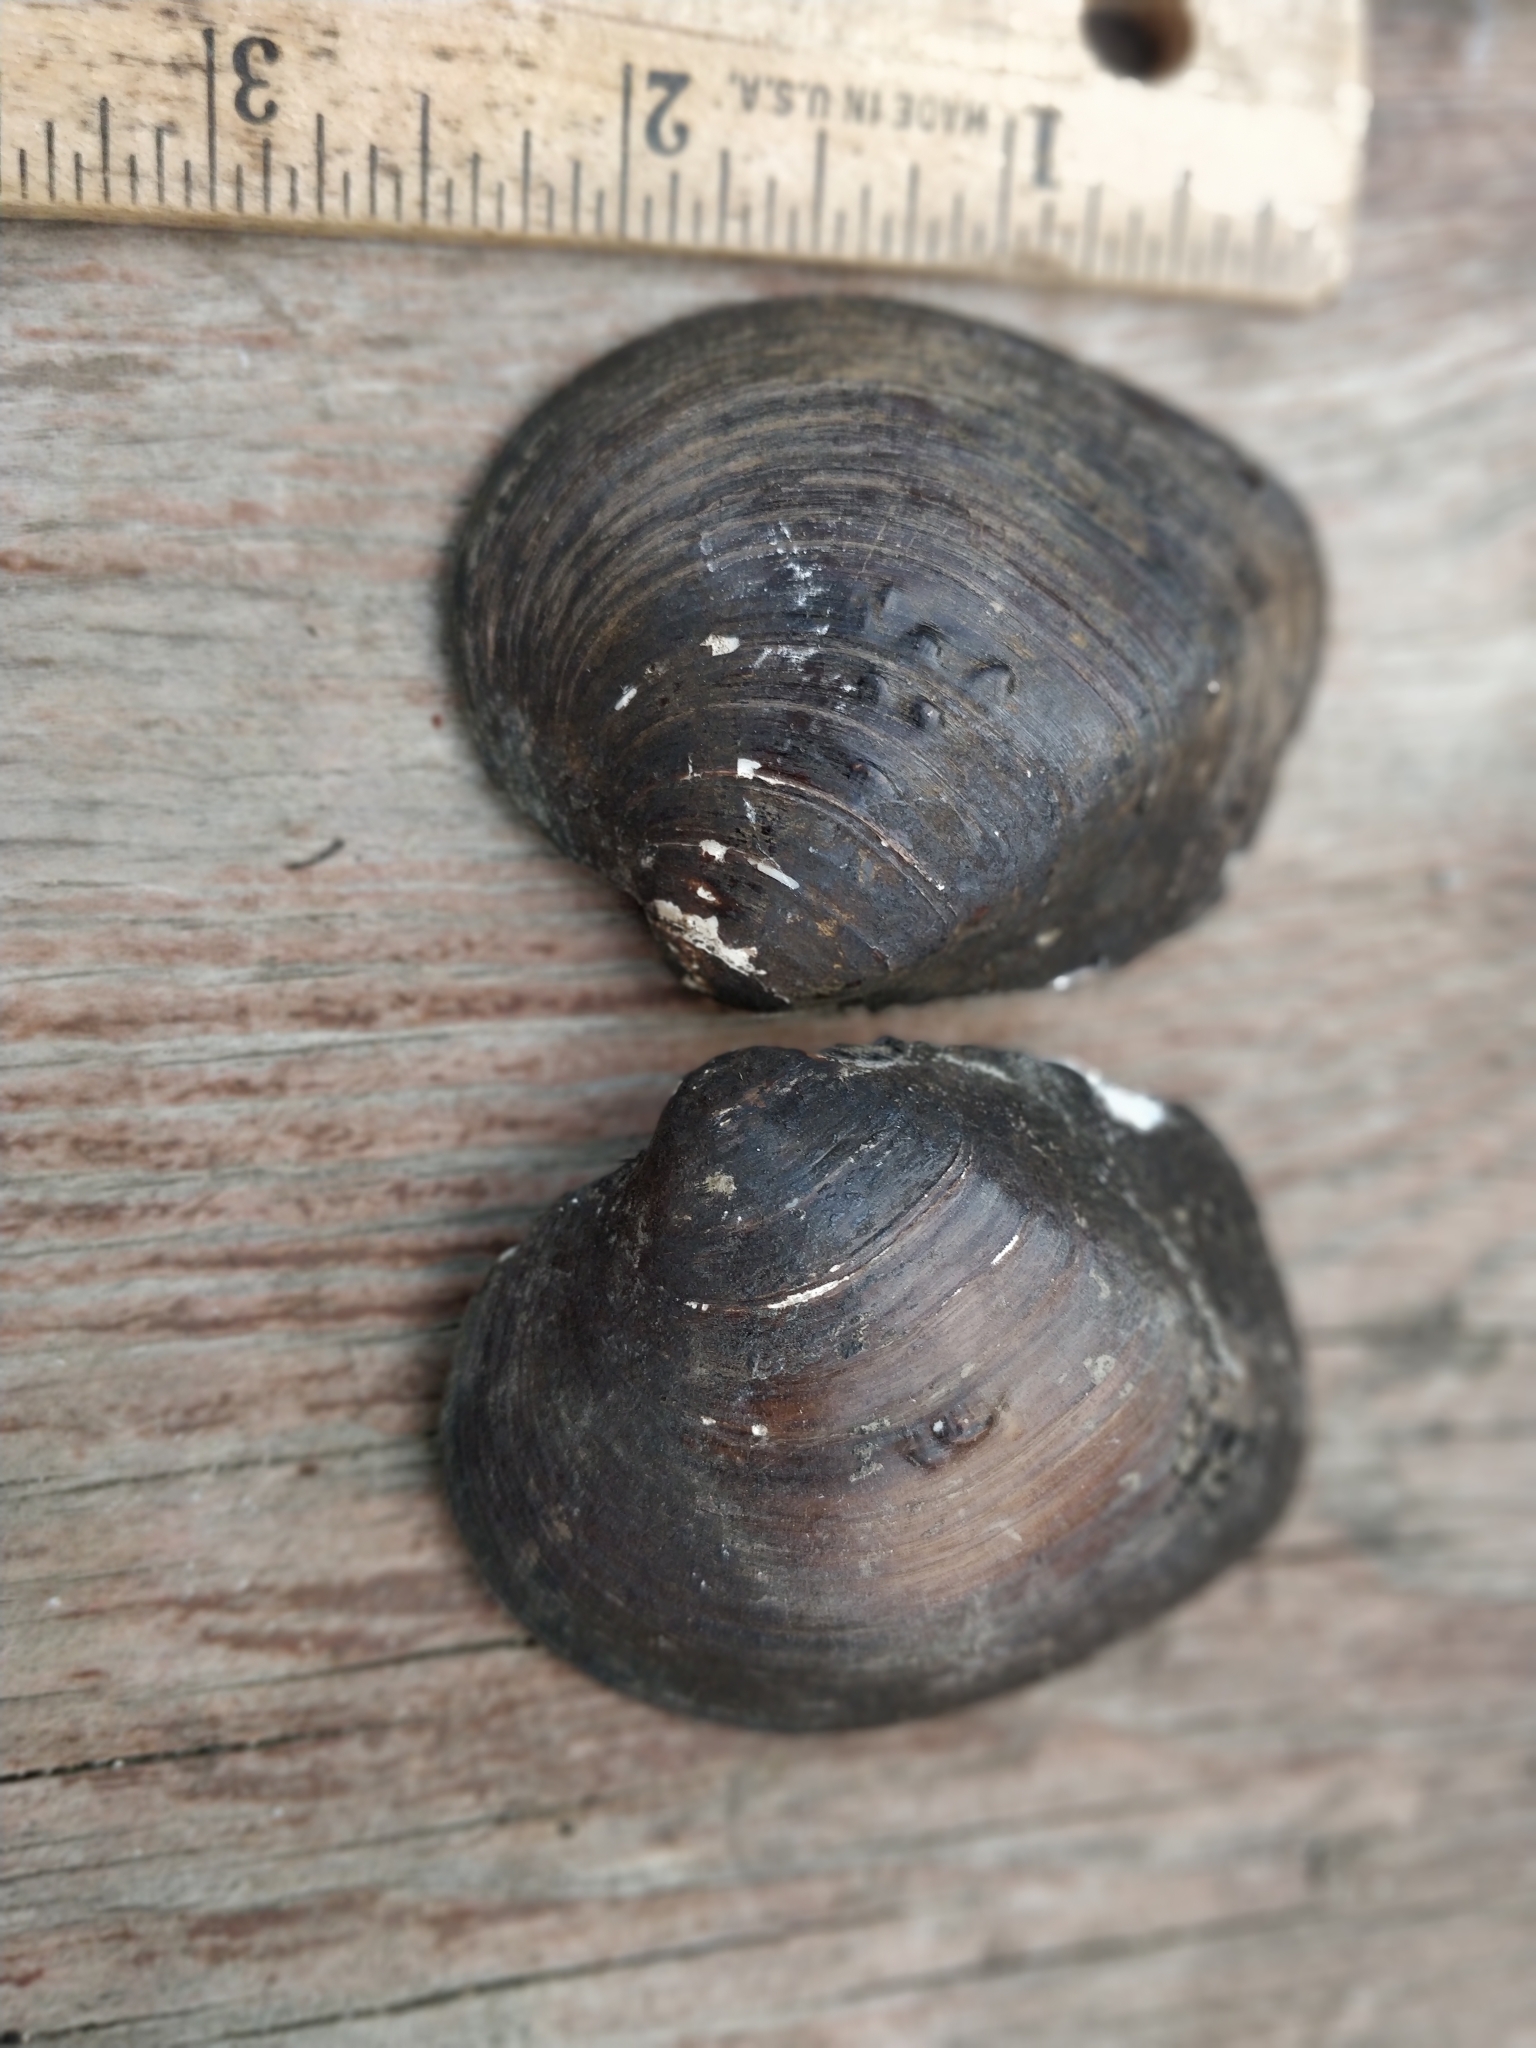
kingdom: Animalia
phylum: Mollusca
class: Bivalvia
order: Unionida
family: Unionidae
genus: Cyclonaias
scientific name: Cyclonaias pustulosa
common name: Pimpleback
